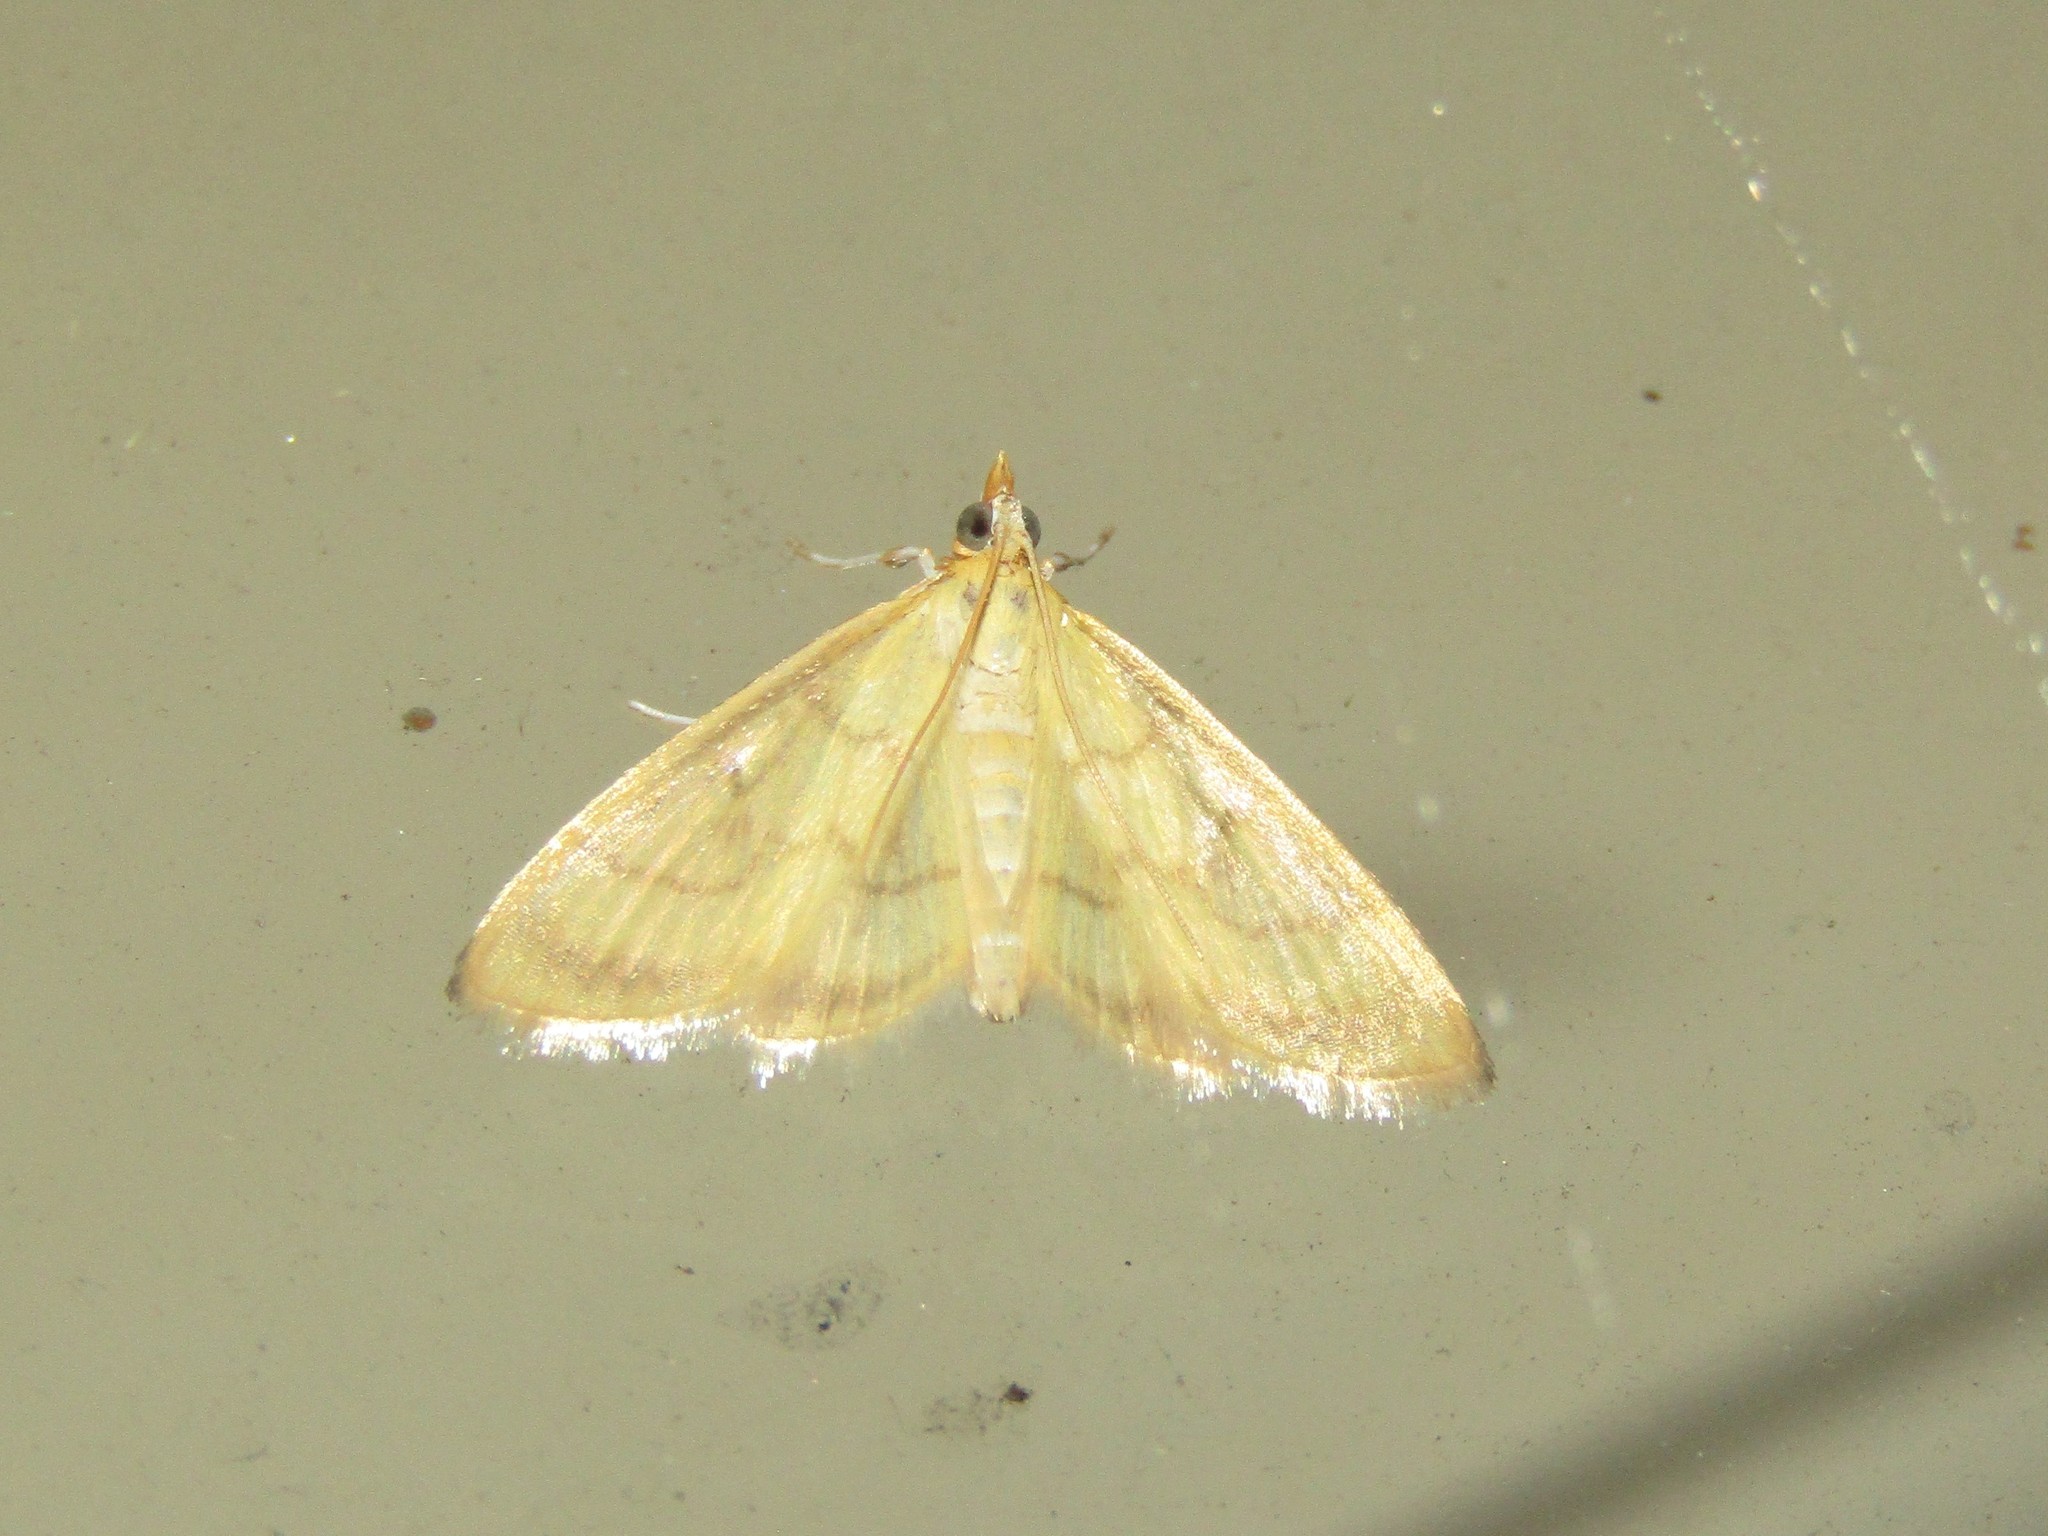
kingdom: Animalia
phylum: Arthropoda
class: Insecta
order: Lepidoptera
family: Crambidae
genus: Crocidophora
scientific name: Crocidophora tuberculalis
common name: Pale-winged crocidiphora moth
